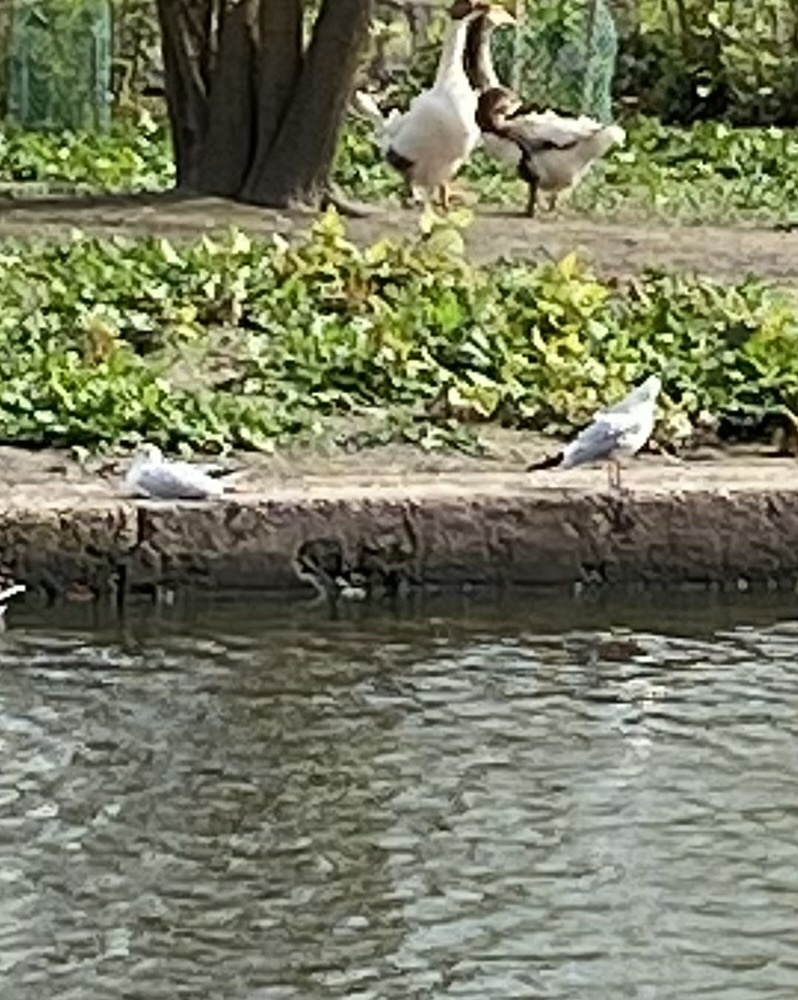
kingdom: Animalia
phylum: Chordata
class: Aves
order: Charadriiformes
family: Laridae
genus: Chroicocephalus
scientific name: Chroicocephalus ridibundus
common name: Black-headed gull
